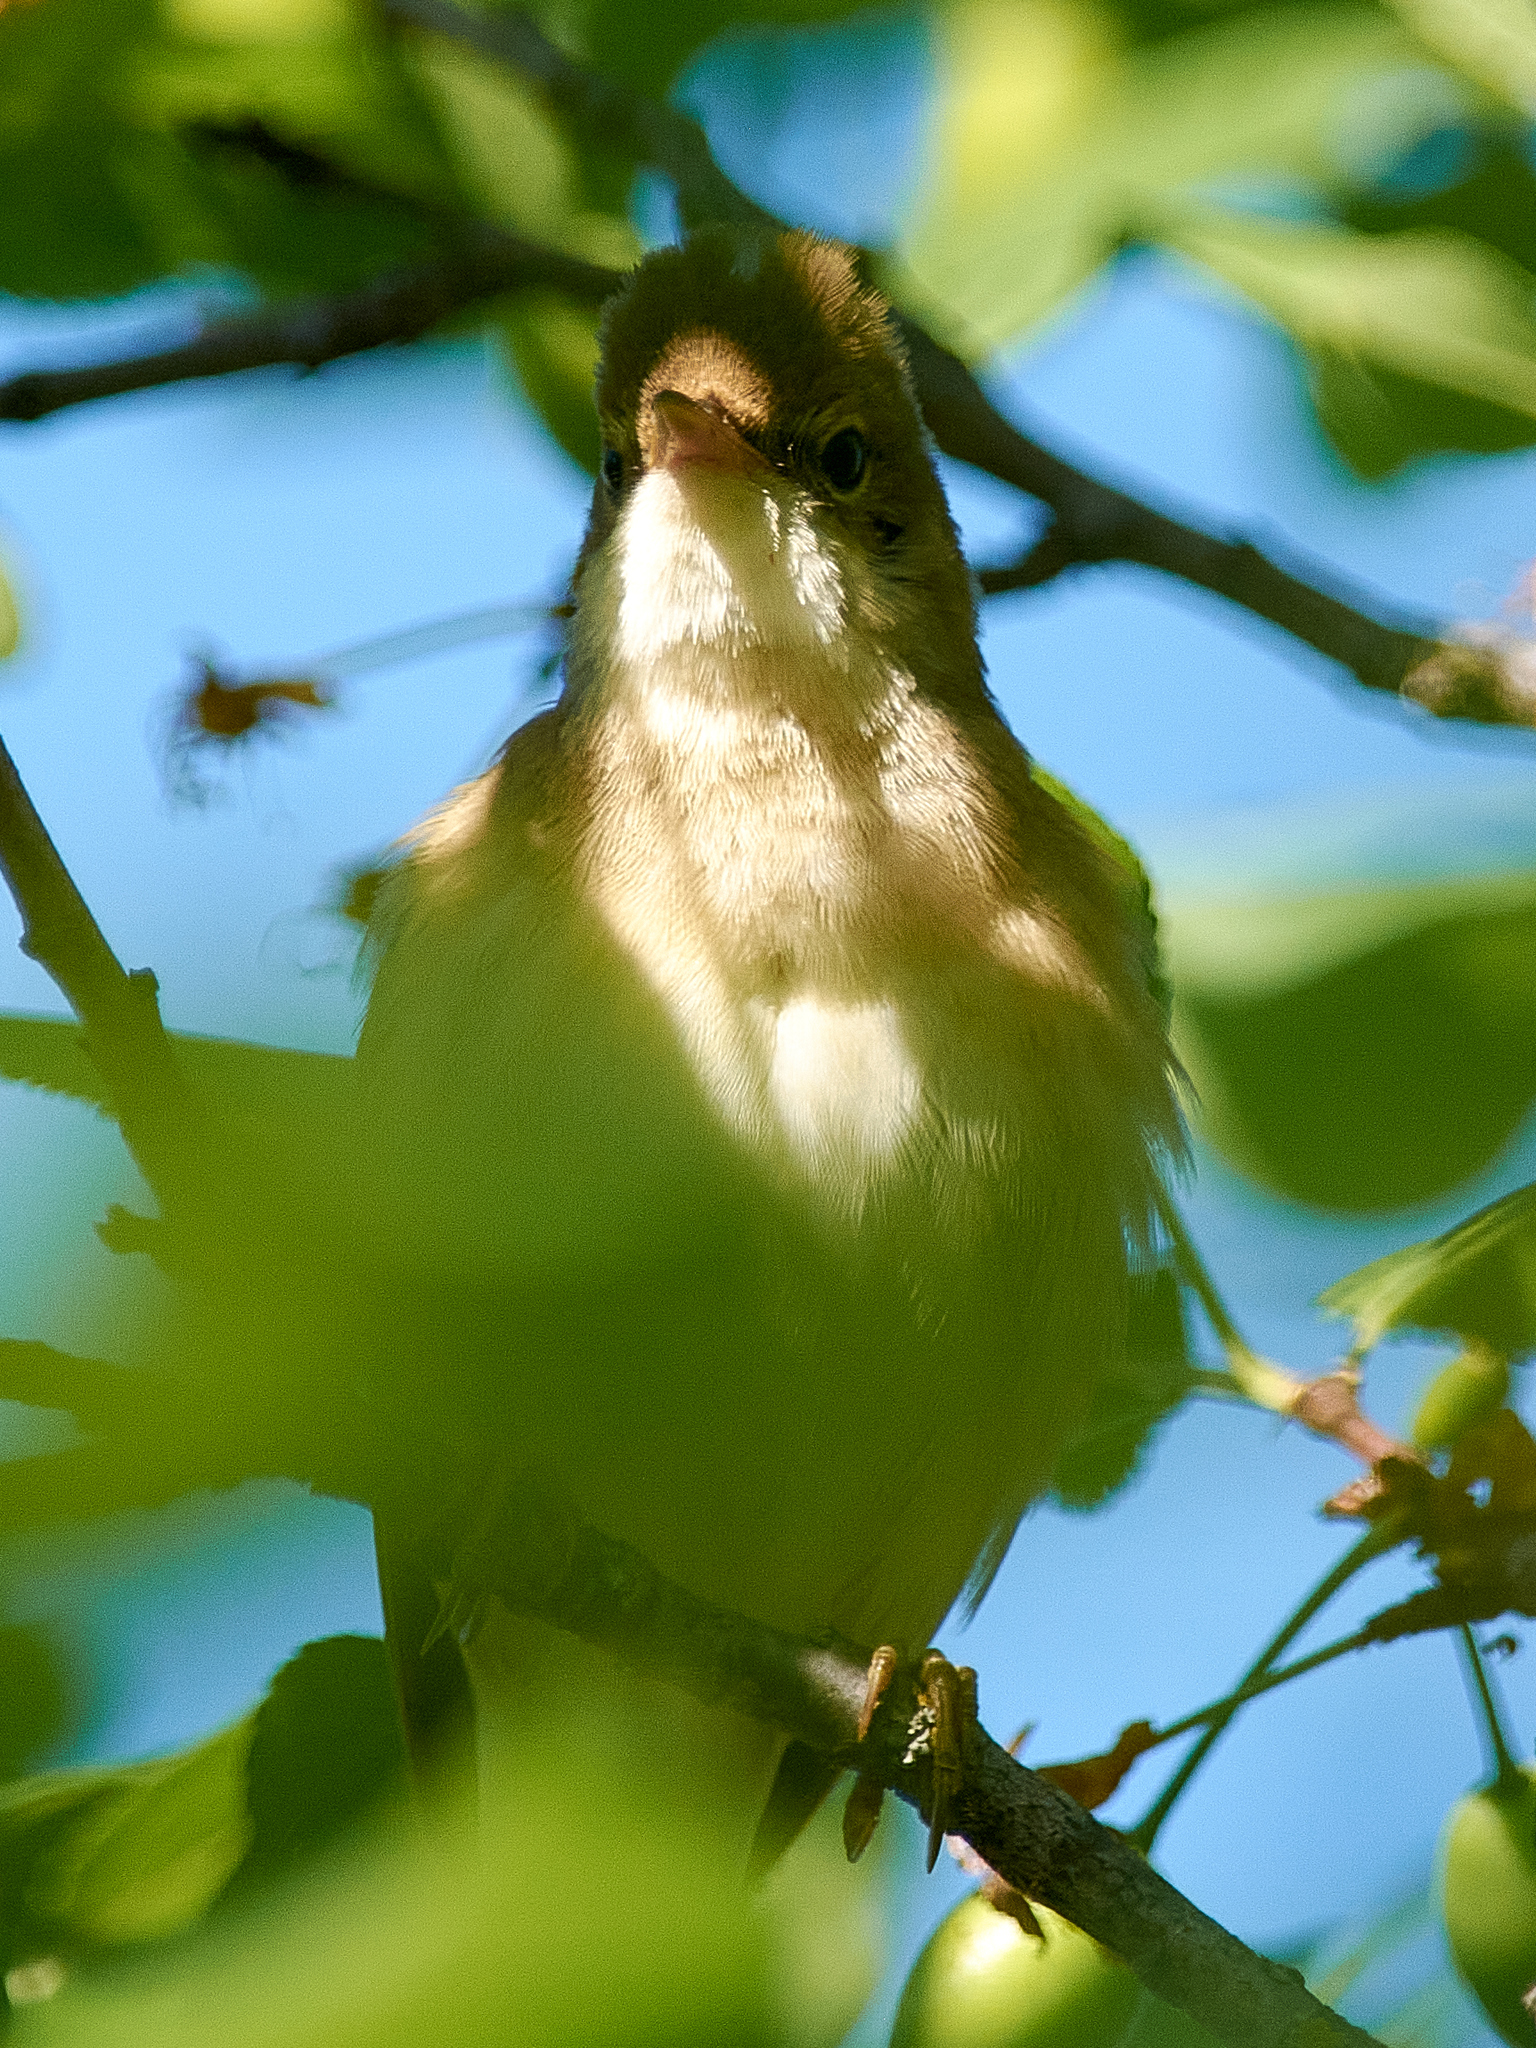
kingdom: Animalia
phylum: Chordata
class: Aves
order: Passeriformes
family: Acrocephalidae
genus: Acrocephalus
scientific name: Acrocephalus palustris
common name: Marsh warbler
